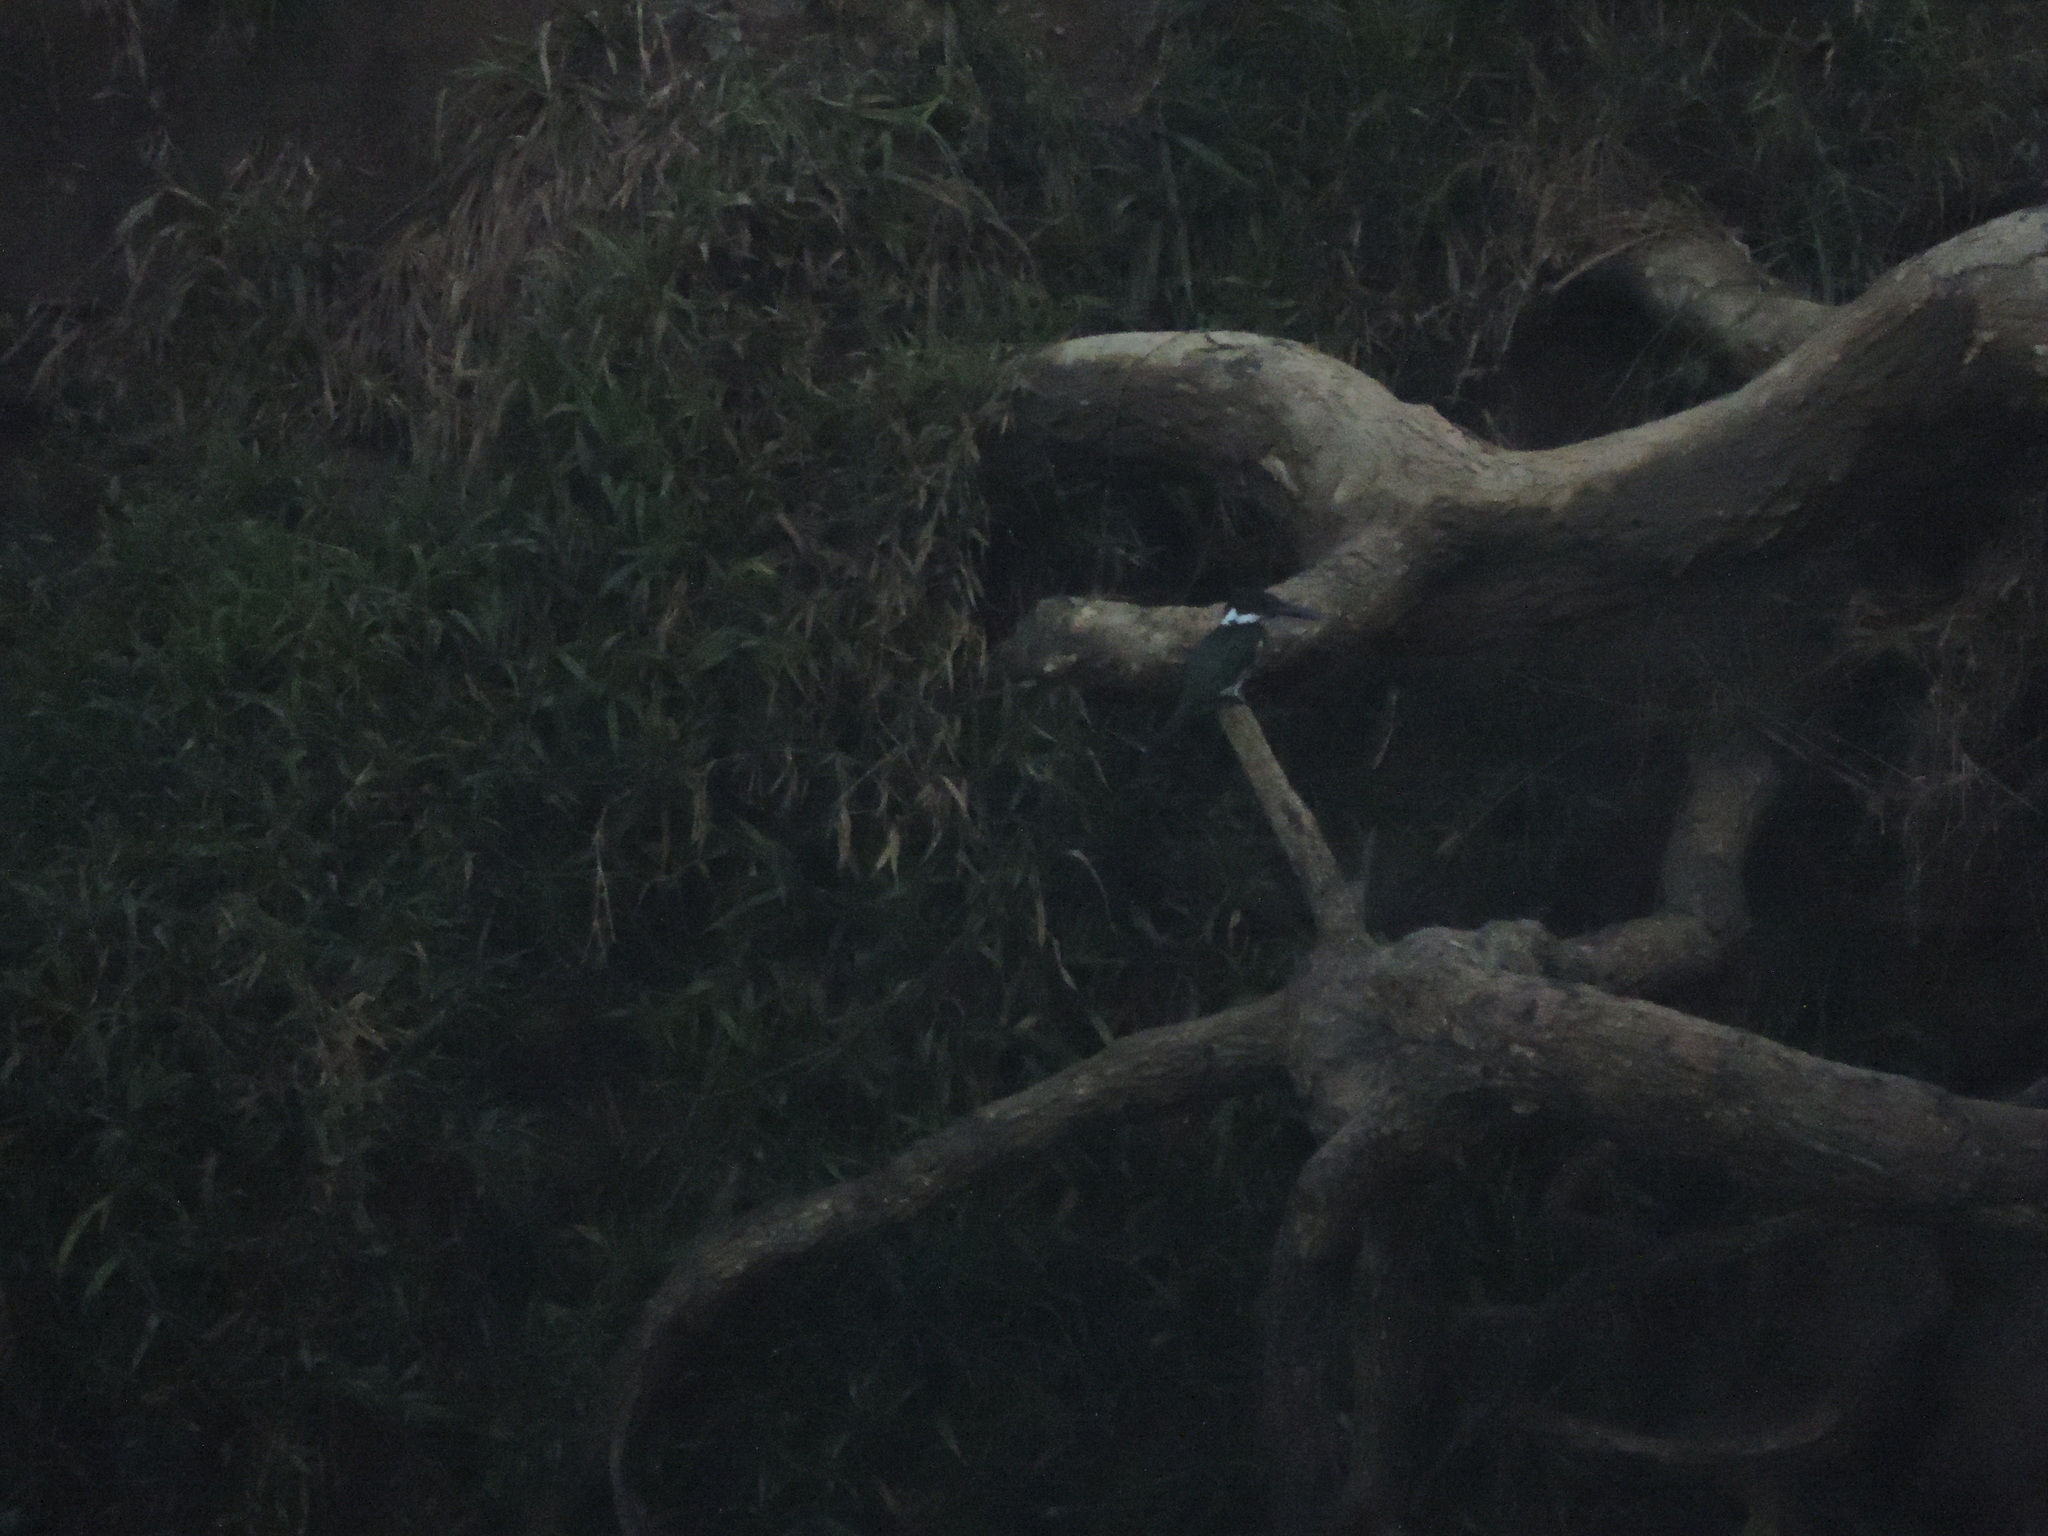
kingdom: Animalia
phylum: Chordata
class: Aves
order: Coraciiformes
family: Alcedinidae
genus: Chloroceryle
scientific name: Chloroceryle amazona
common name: Amazon kingfisher
